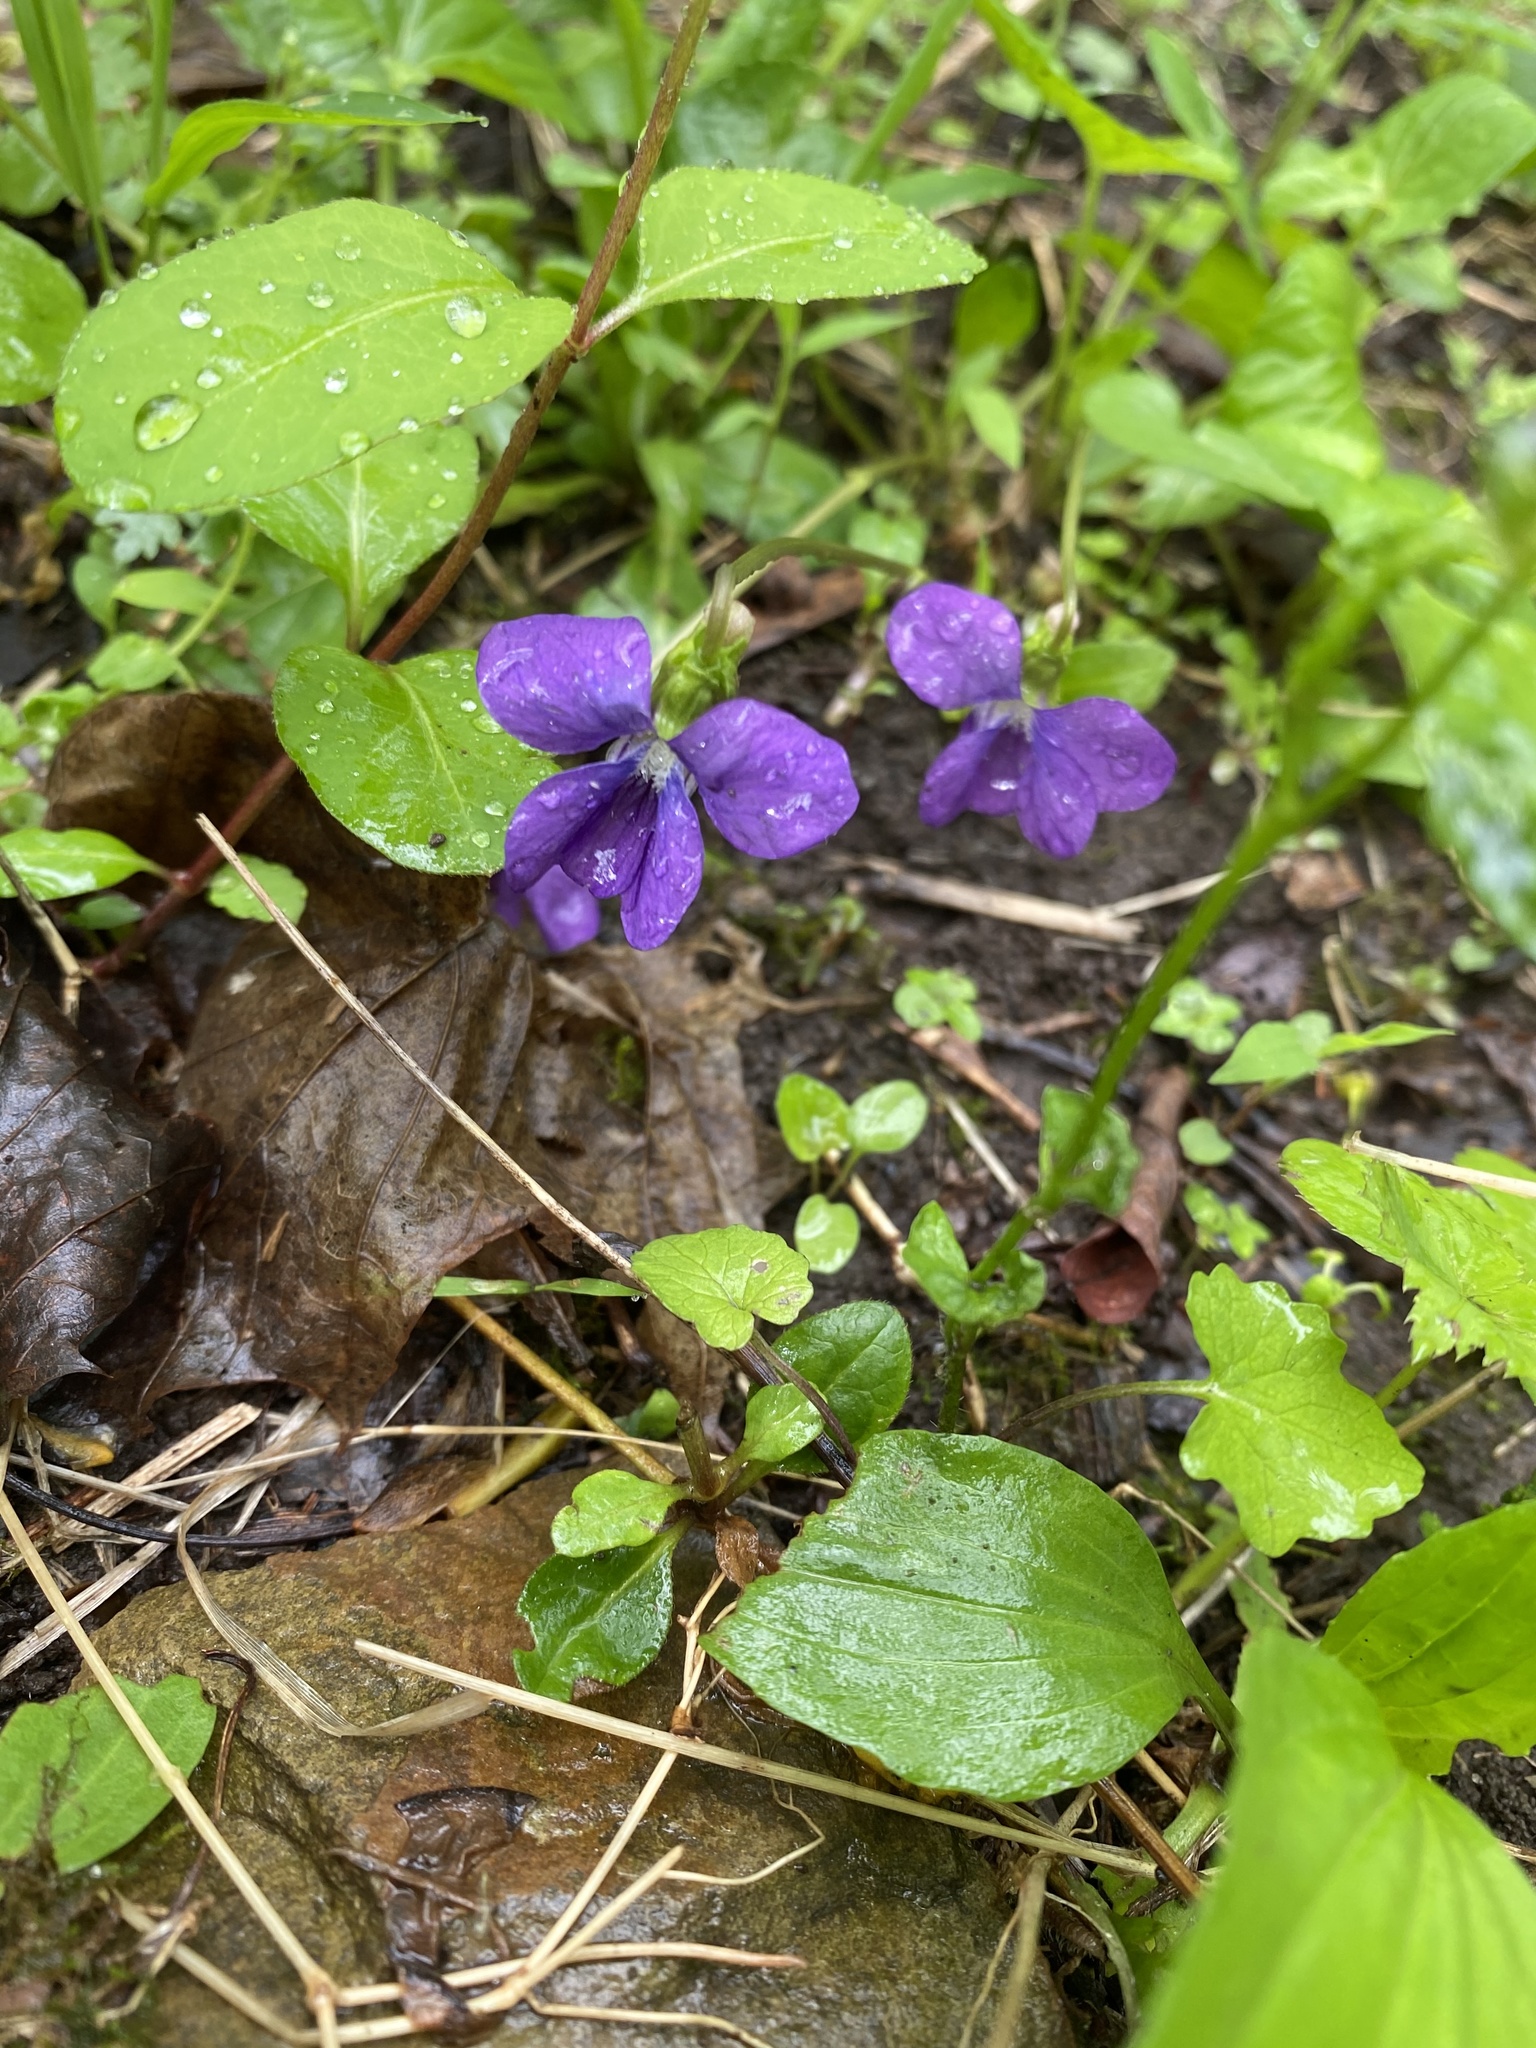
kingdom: Plantae
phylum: Tracheophyta
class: Magnoliopsida
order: Malpighiales
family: Violaceae
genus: Viola
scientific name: Viola sororia
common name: Dooryard violet
